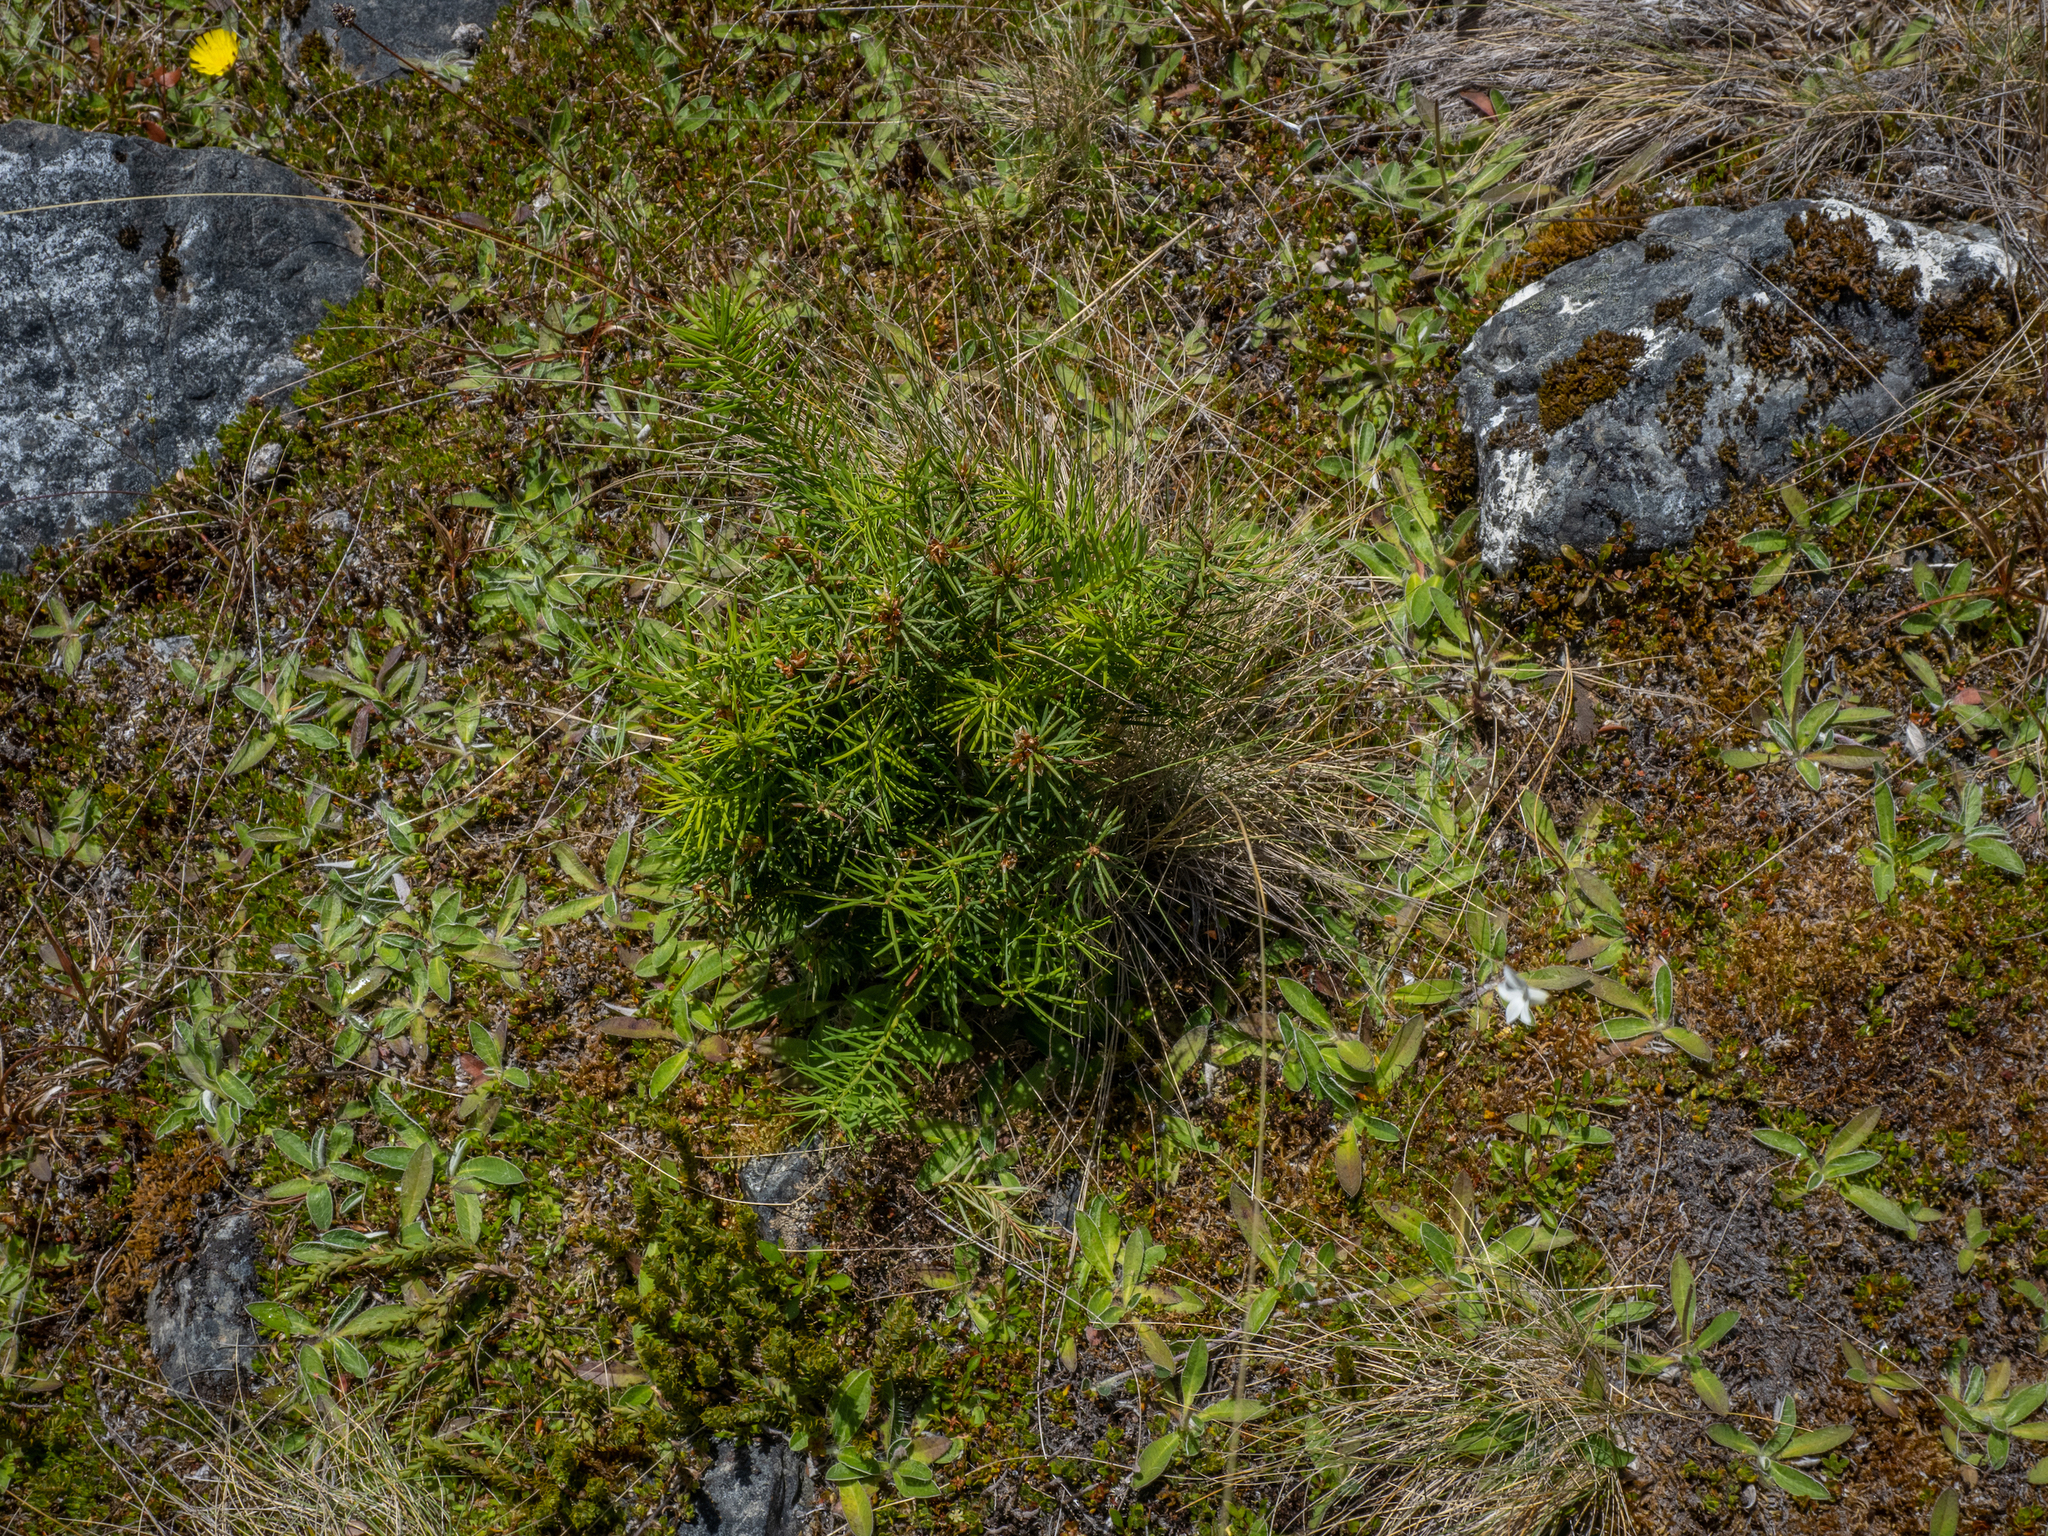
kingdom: Plantae
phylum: Tracheophyta
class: Pinopsida
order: Pinales
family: Pinaceae
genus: Pseudotsuga
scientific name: Pseudotsuga menziesii
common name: Douglas fir
